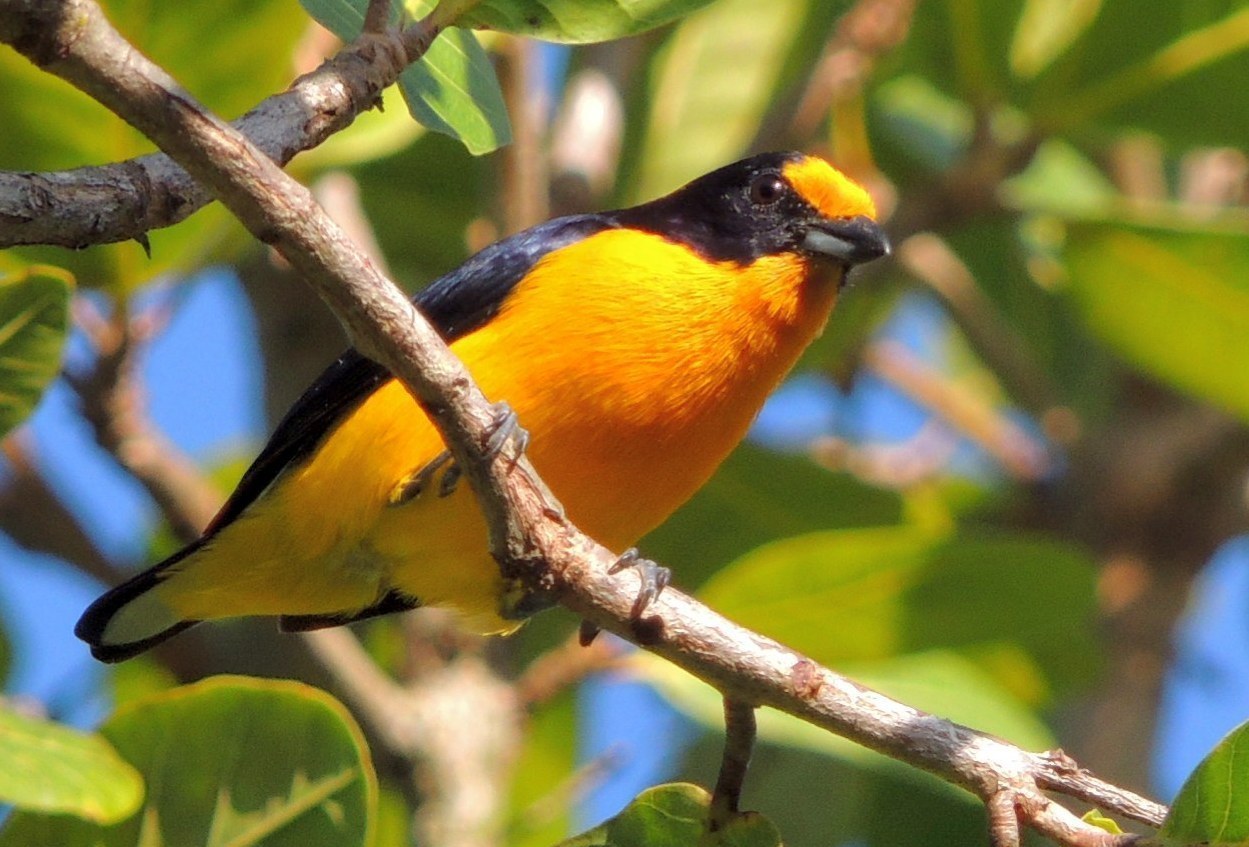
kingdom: Animalia
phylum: Chordata
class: Aves
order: Passeriformes
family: Fringillidae
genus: Euphonia
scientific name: Euphonia violacea
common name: Violaceous euphonia
